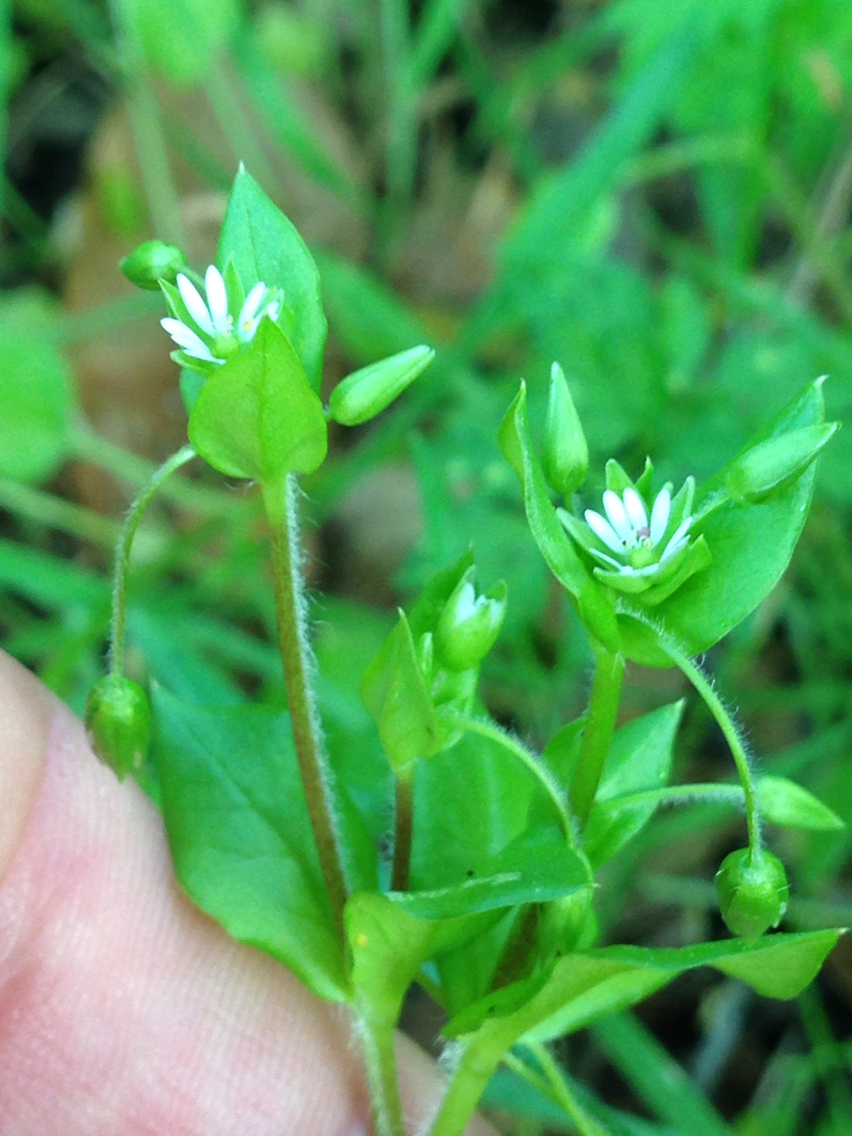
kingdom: Plantae
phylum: Tracheophyta
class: Magnoliopsida
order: Caryophyllales
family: Caryophyllaceae
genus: Stellaria
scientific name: Stellaria media
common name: Common chickweed
